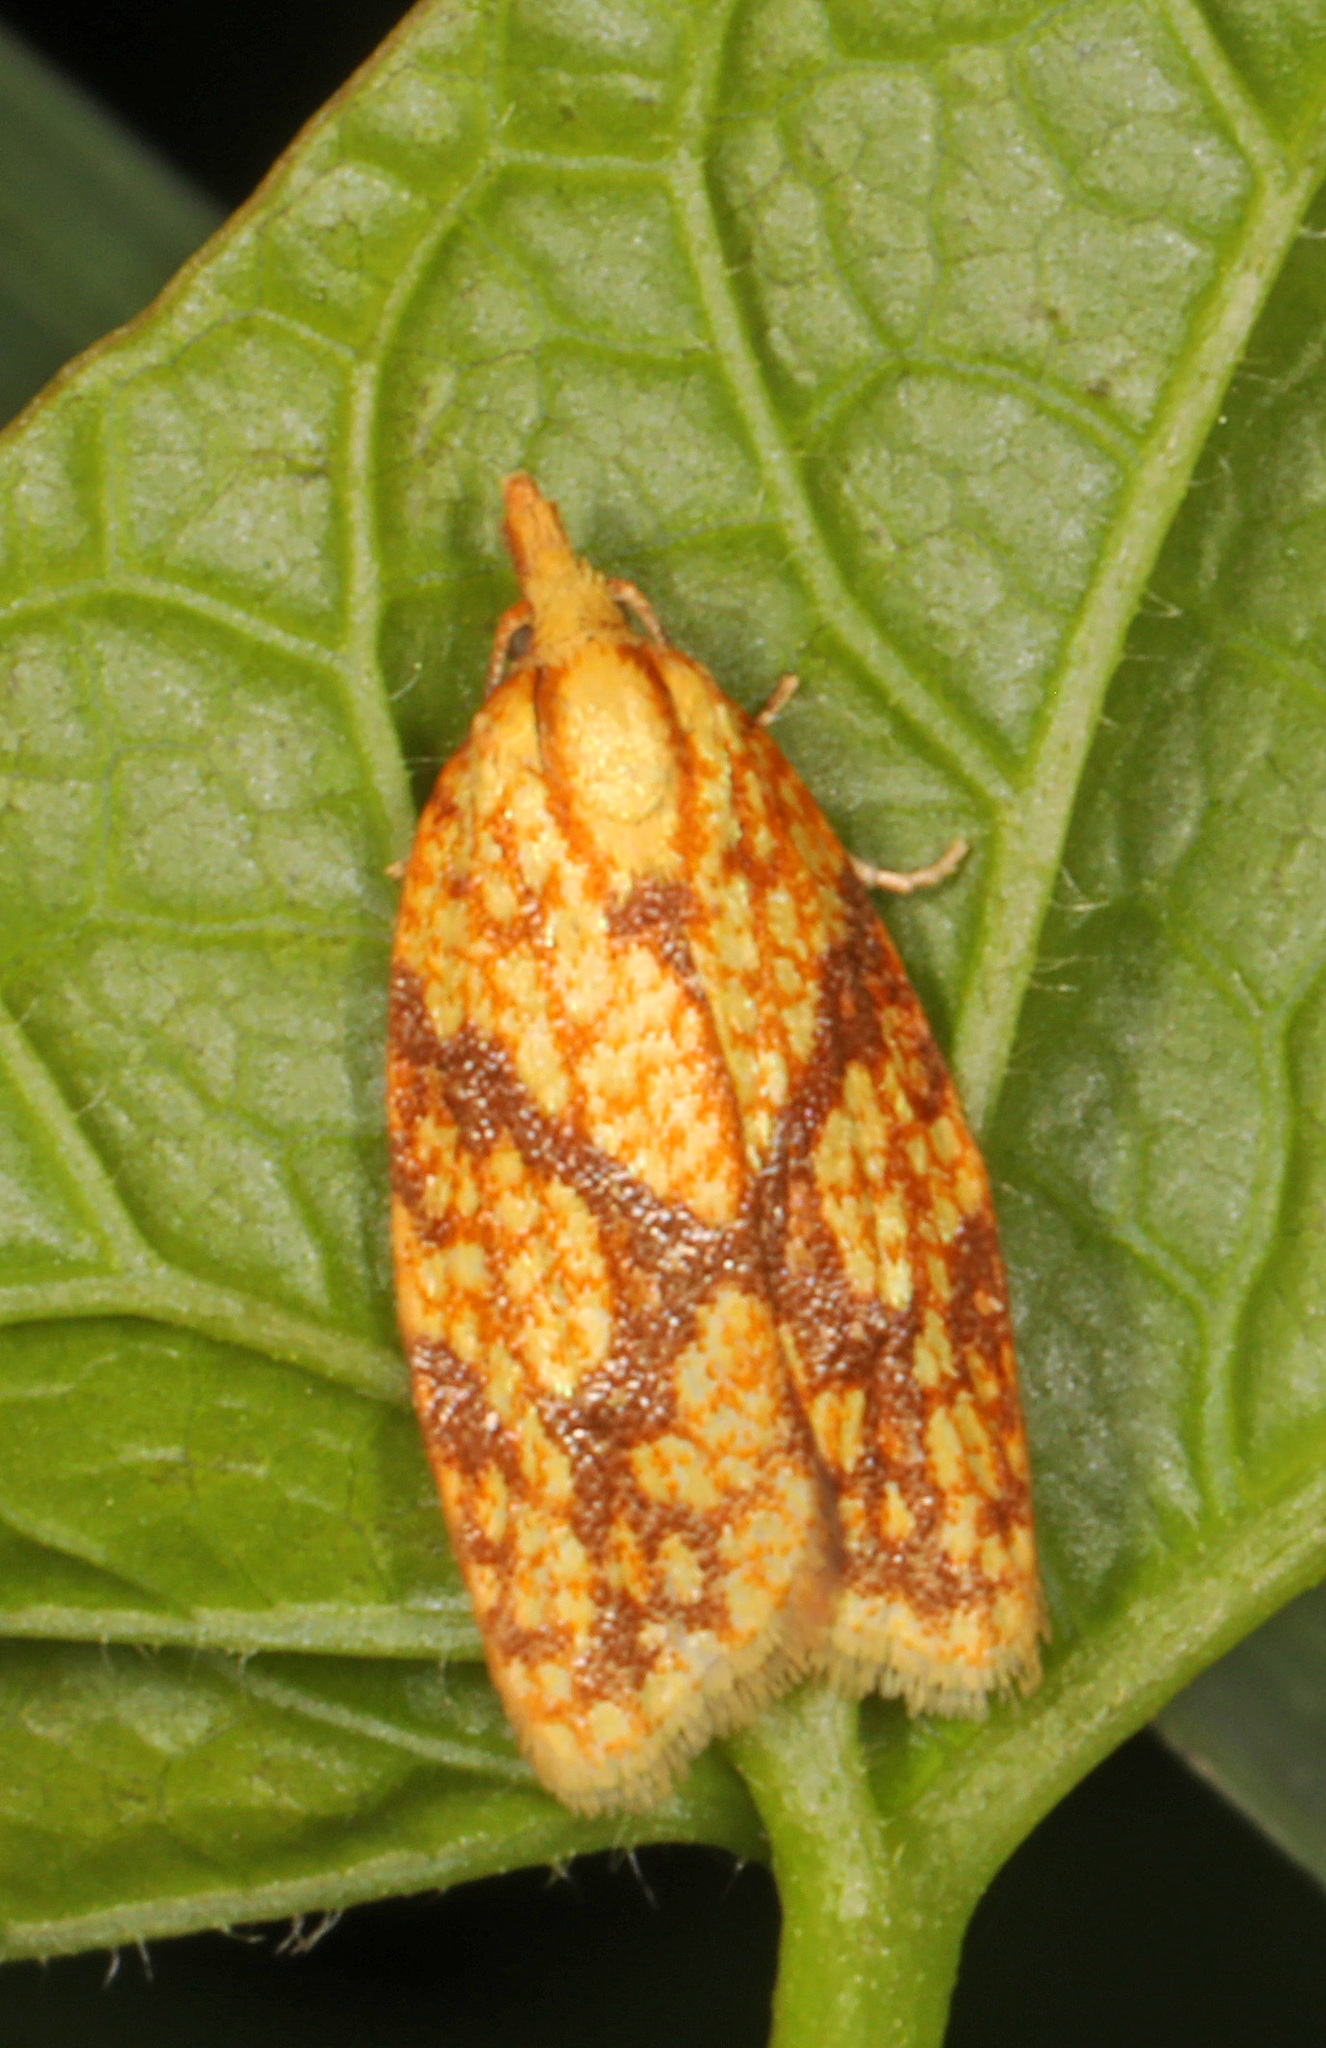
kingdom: Animalia
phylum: Arthropoda
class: Insecta
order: Lepidoptera
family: Tortricidae
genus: Sparganothis
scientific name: Sparganothis sulfureana
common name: Sparganothis fruitworm moth
